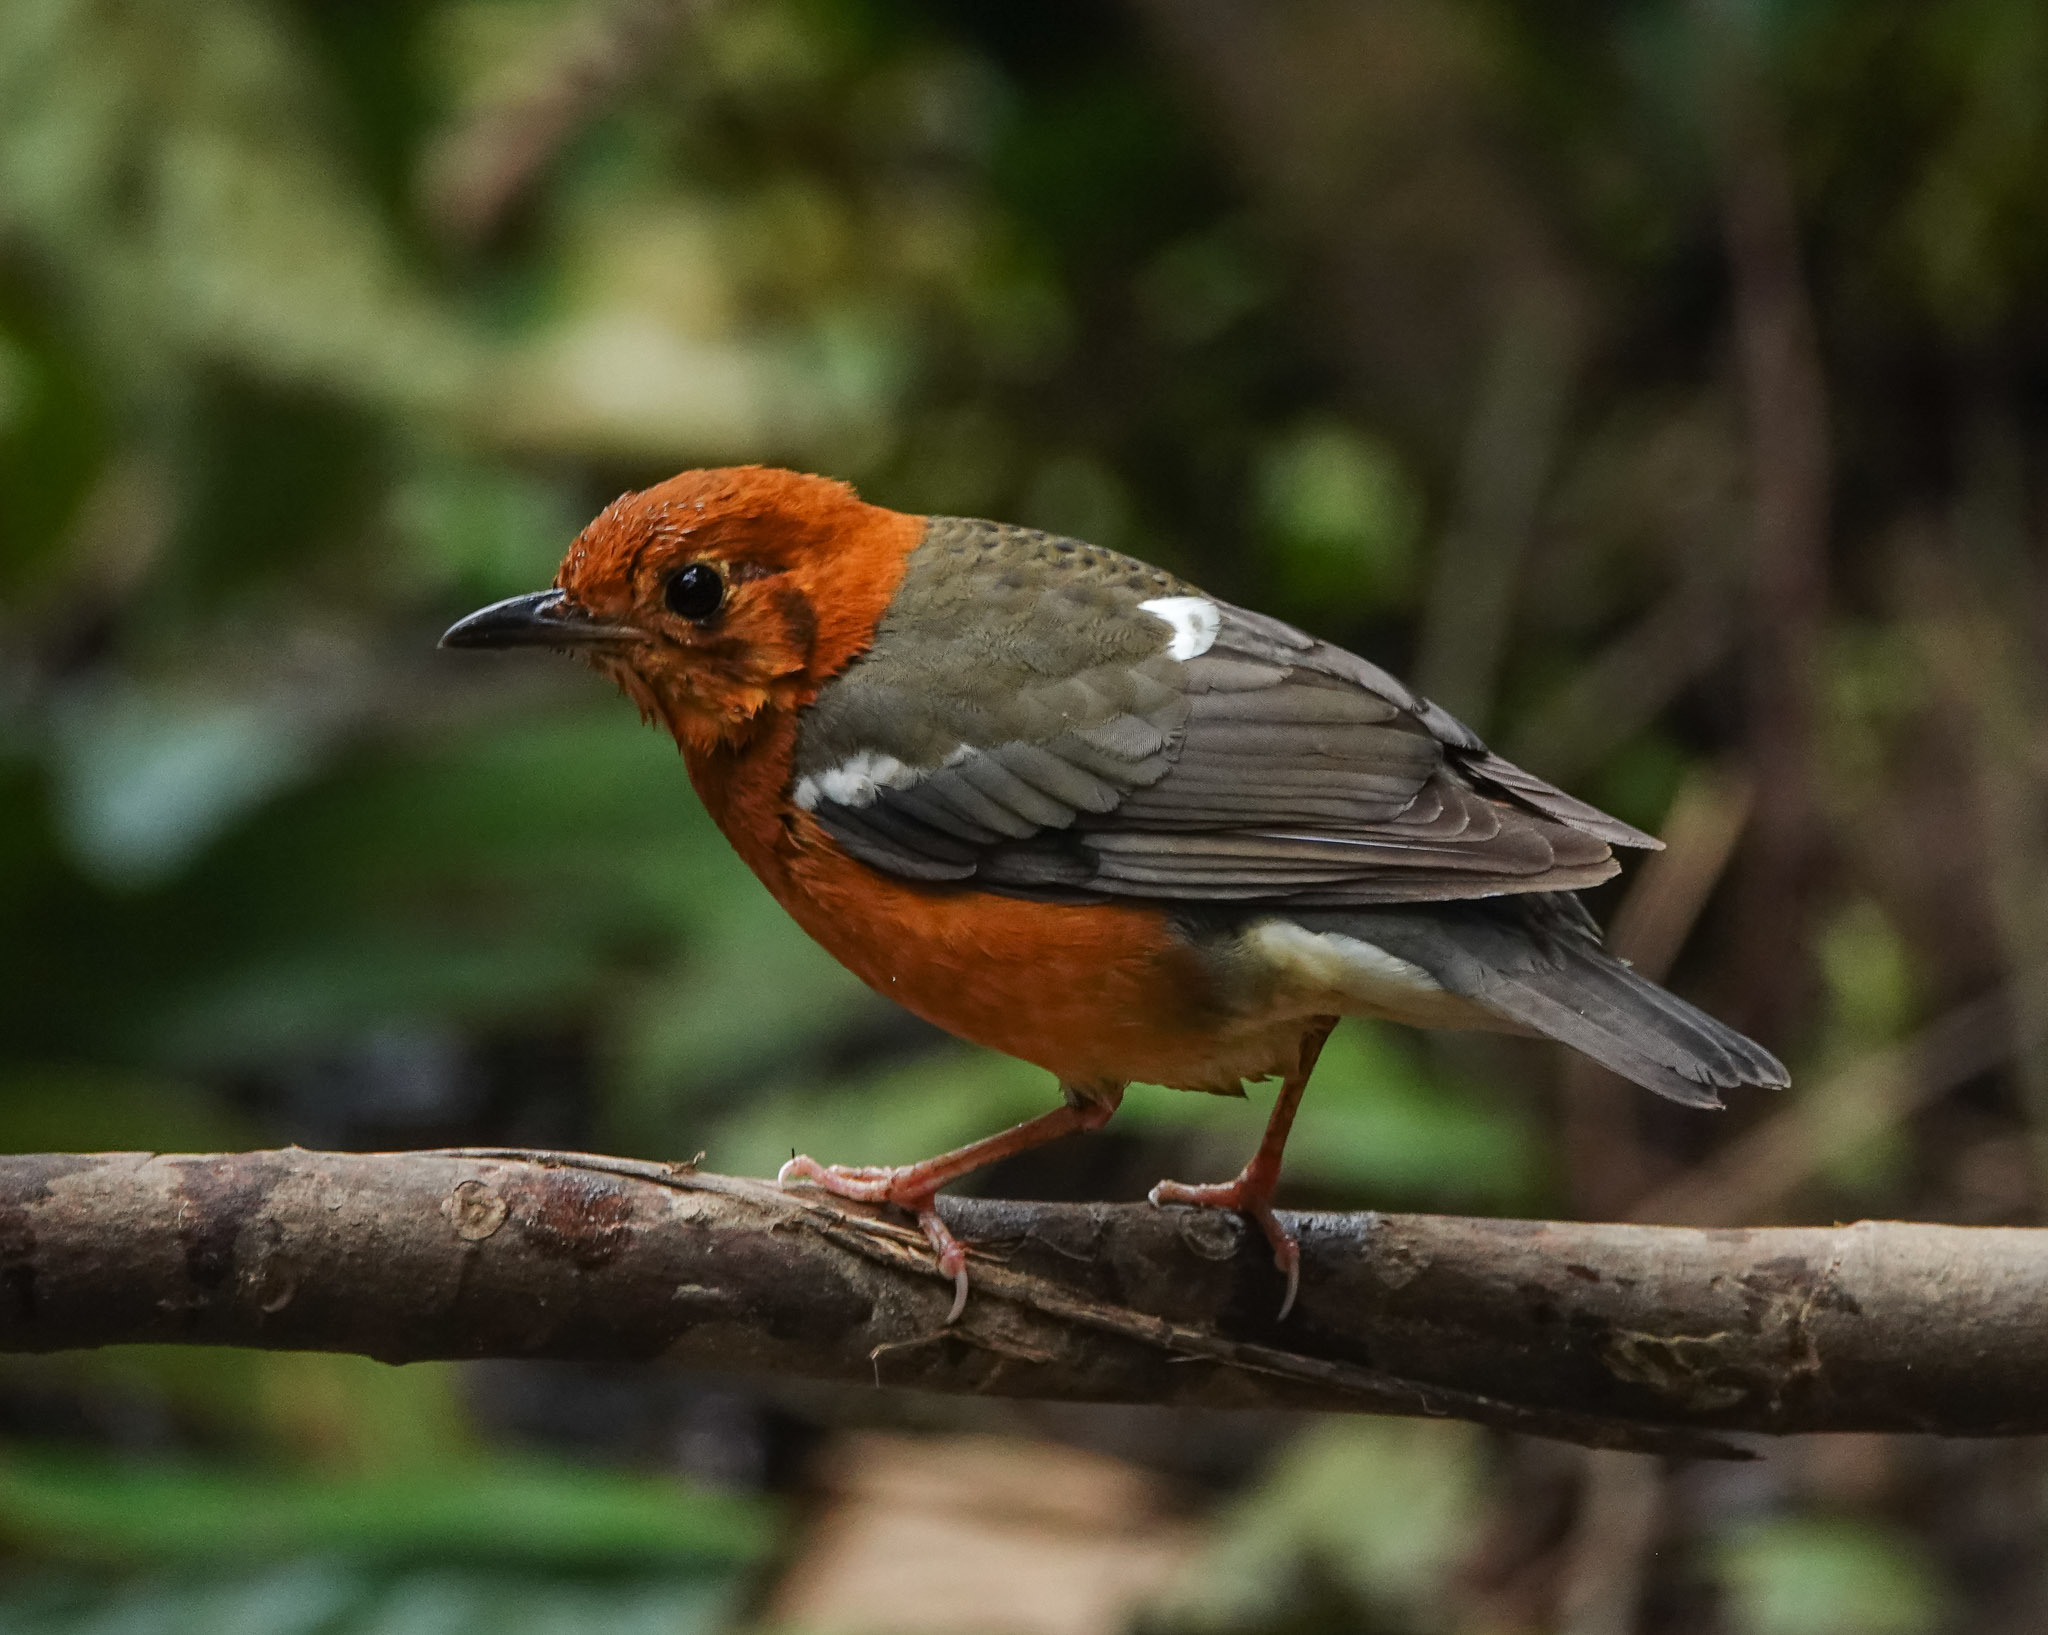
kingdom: Animalia
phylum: Chordata
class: Aves
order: Passeriformes
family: Turdidae
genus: Geokichla
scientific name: Geokichla citrina
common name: Orange-headed thrush
